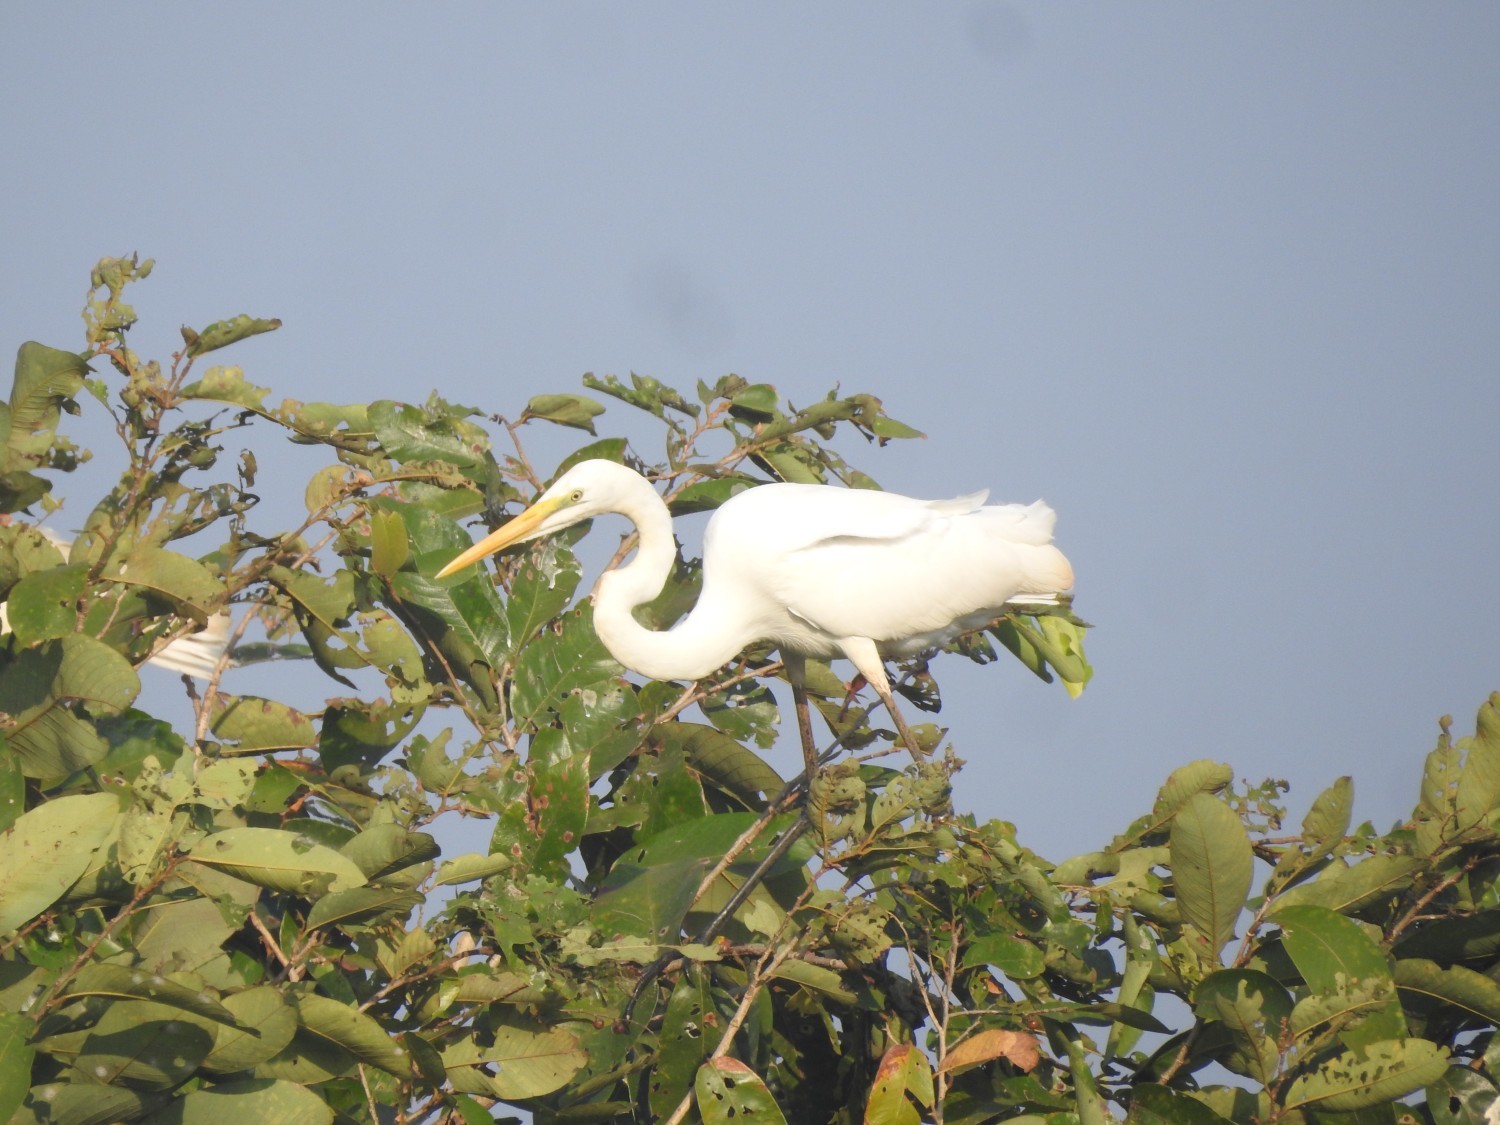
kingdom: Animalia
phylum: Chordata
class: Aves
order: Pelecaniformes
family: Ardeidae
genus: Ardea
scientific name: Ardea alba
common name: Great egret
